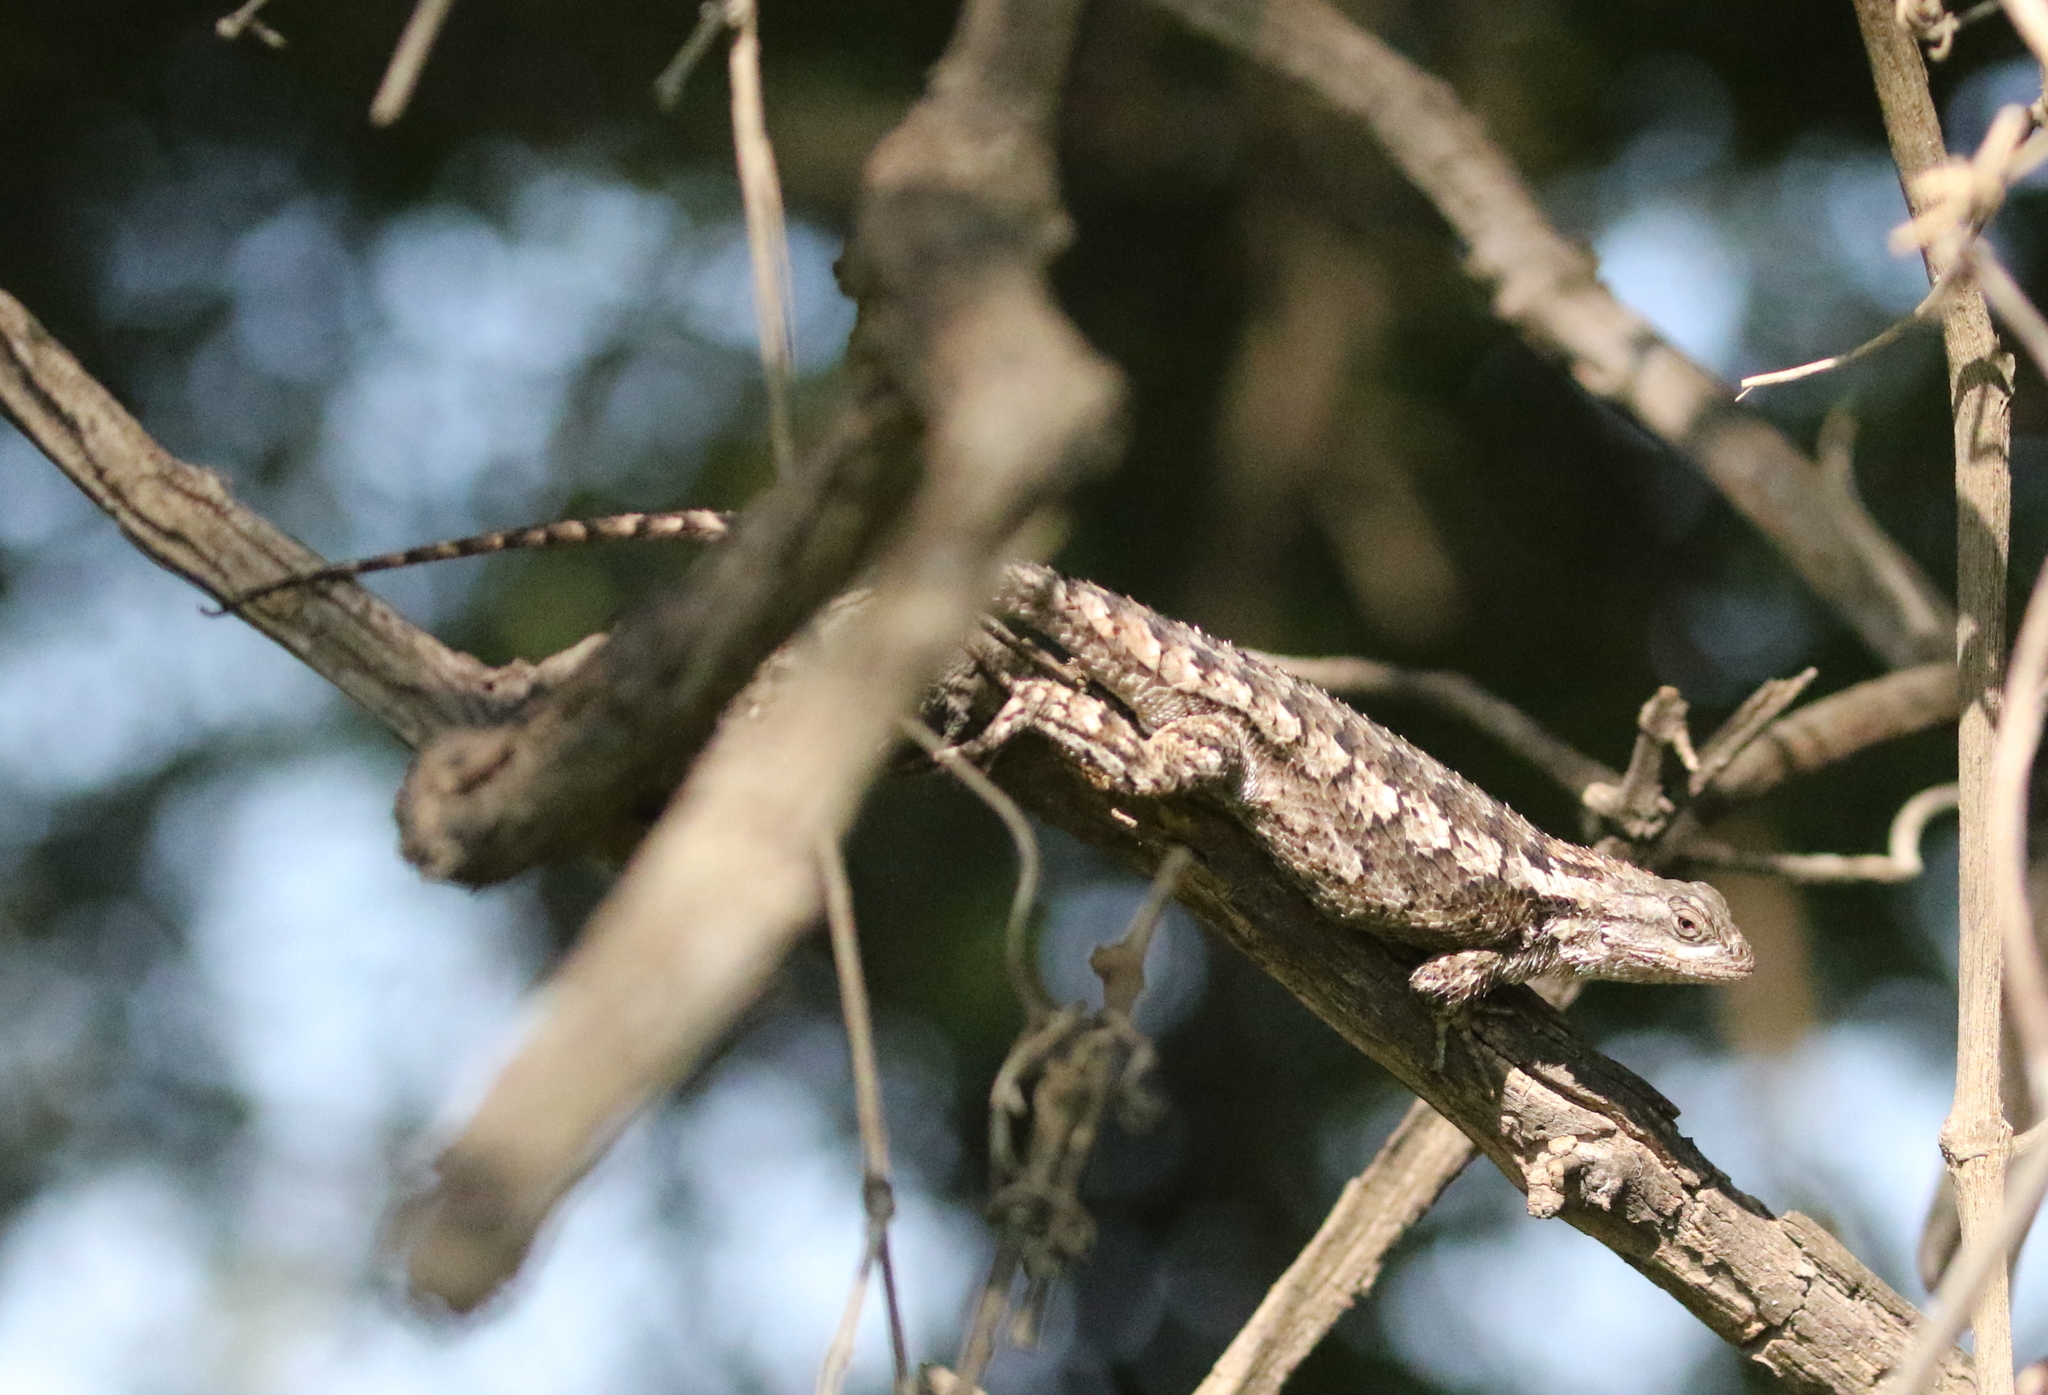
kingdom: Animalia
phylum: Chordata
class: Squamata
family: Phrynosomatidae
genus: Sceloporus
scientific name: Sceloporus olivaceus
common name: Texas spiny lizard
